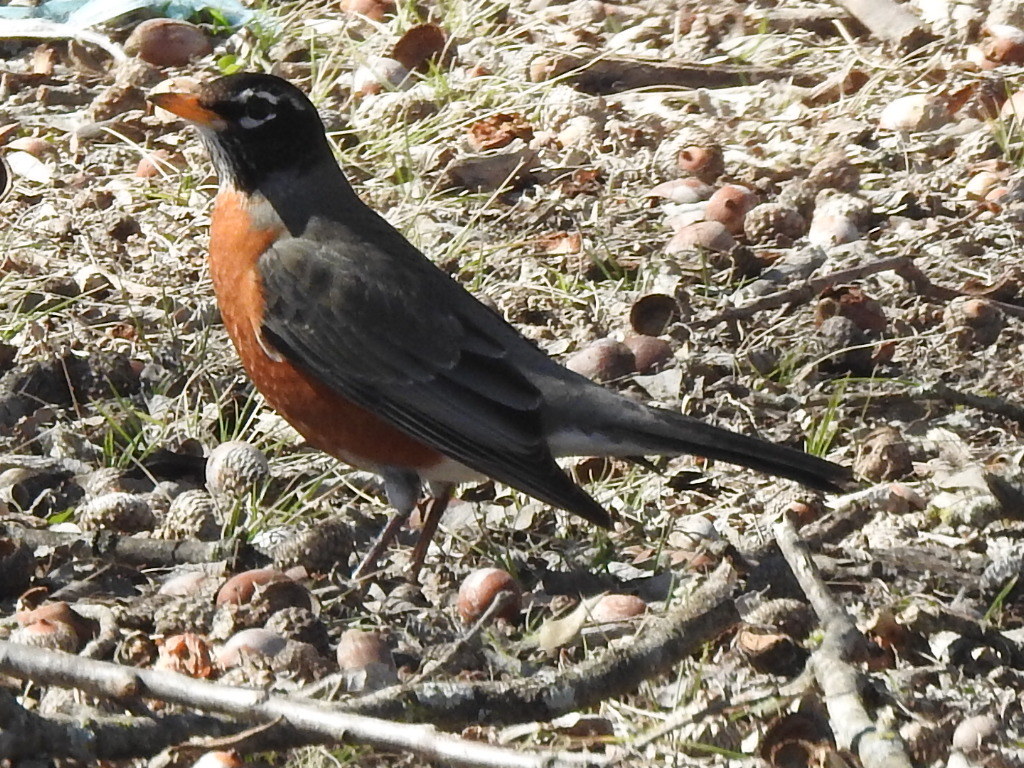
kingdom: Animalia
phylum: Chordata
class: Aves
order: Passeriformes
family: Turdidae
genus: Turdus
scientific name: Turdus migratorius
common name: American robin
